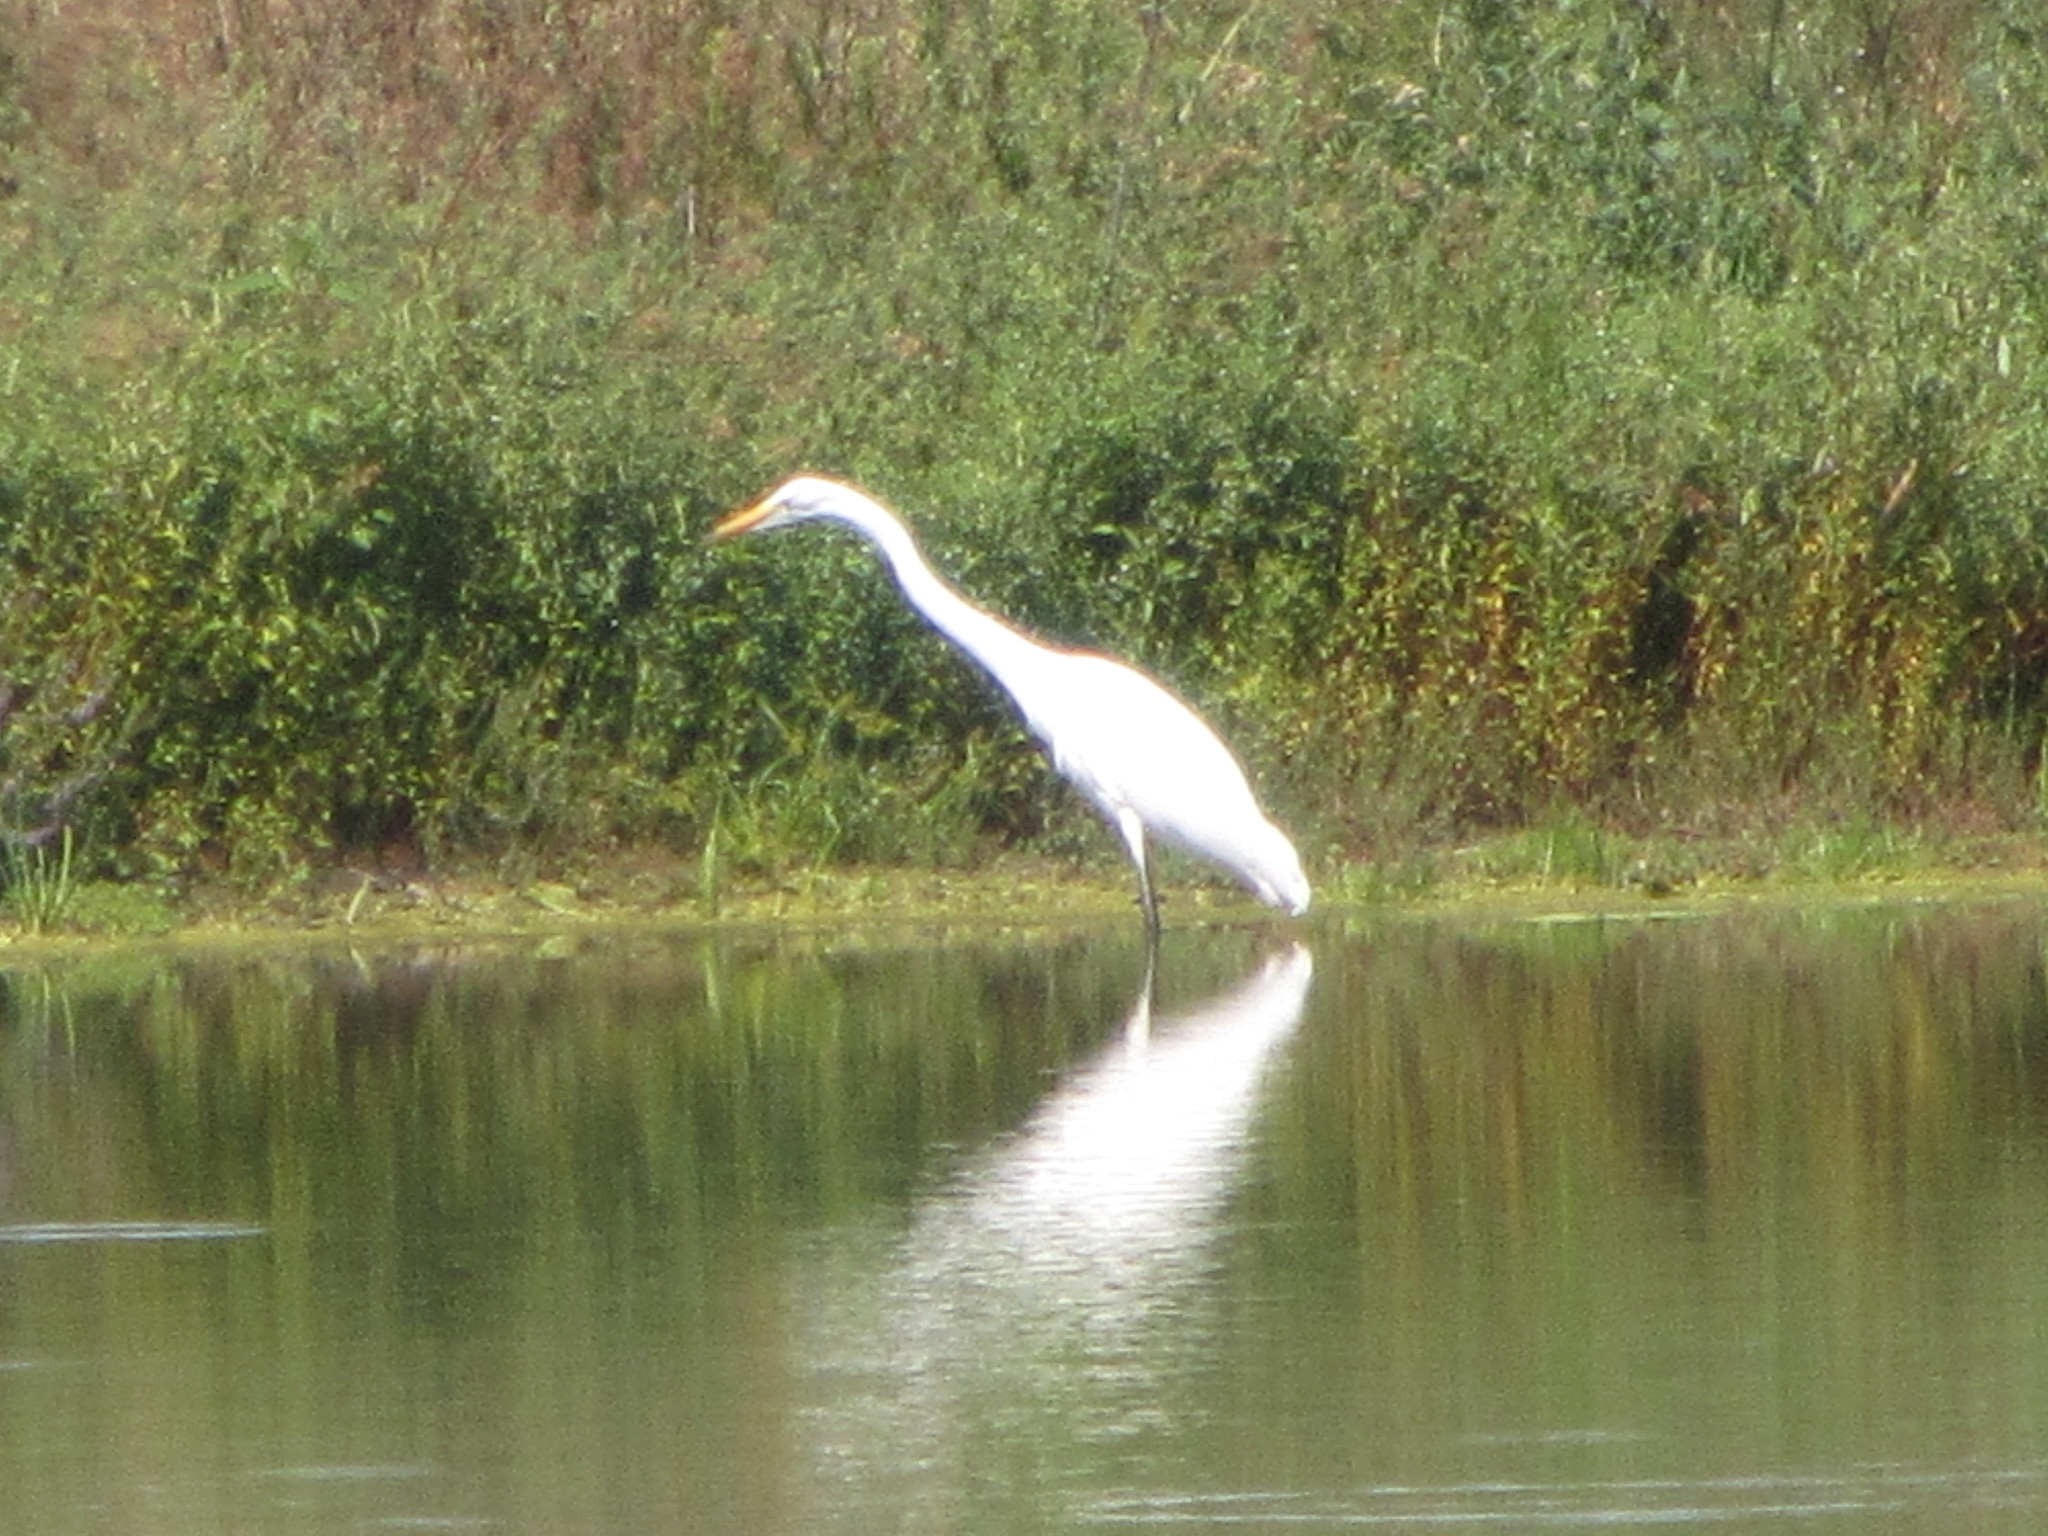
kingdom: Animalia
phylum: Chordata
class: Aves
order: Pelecaniformes
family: Ardeidae
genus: Ardea
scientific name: Ardea alba
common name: Great egret
